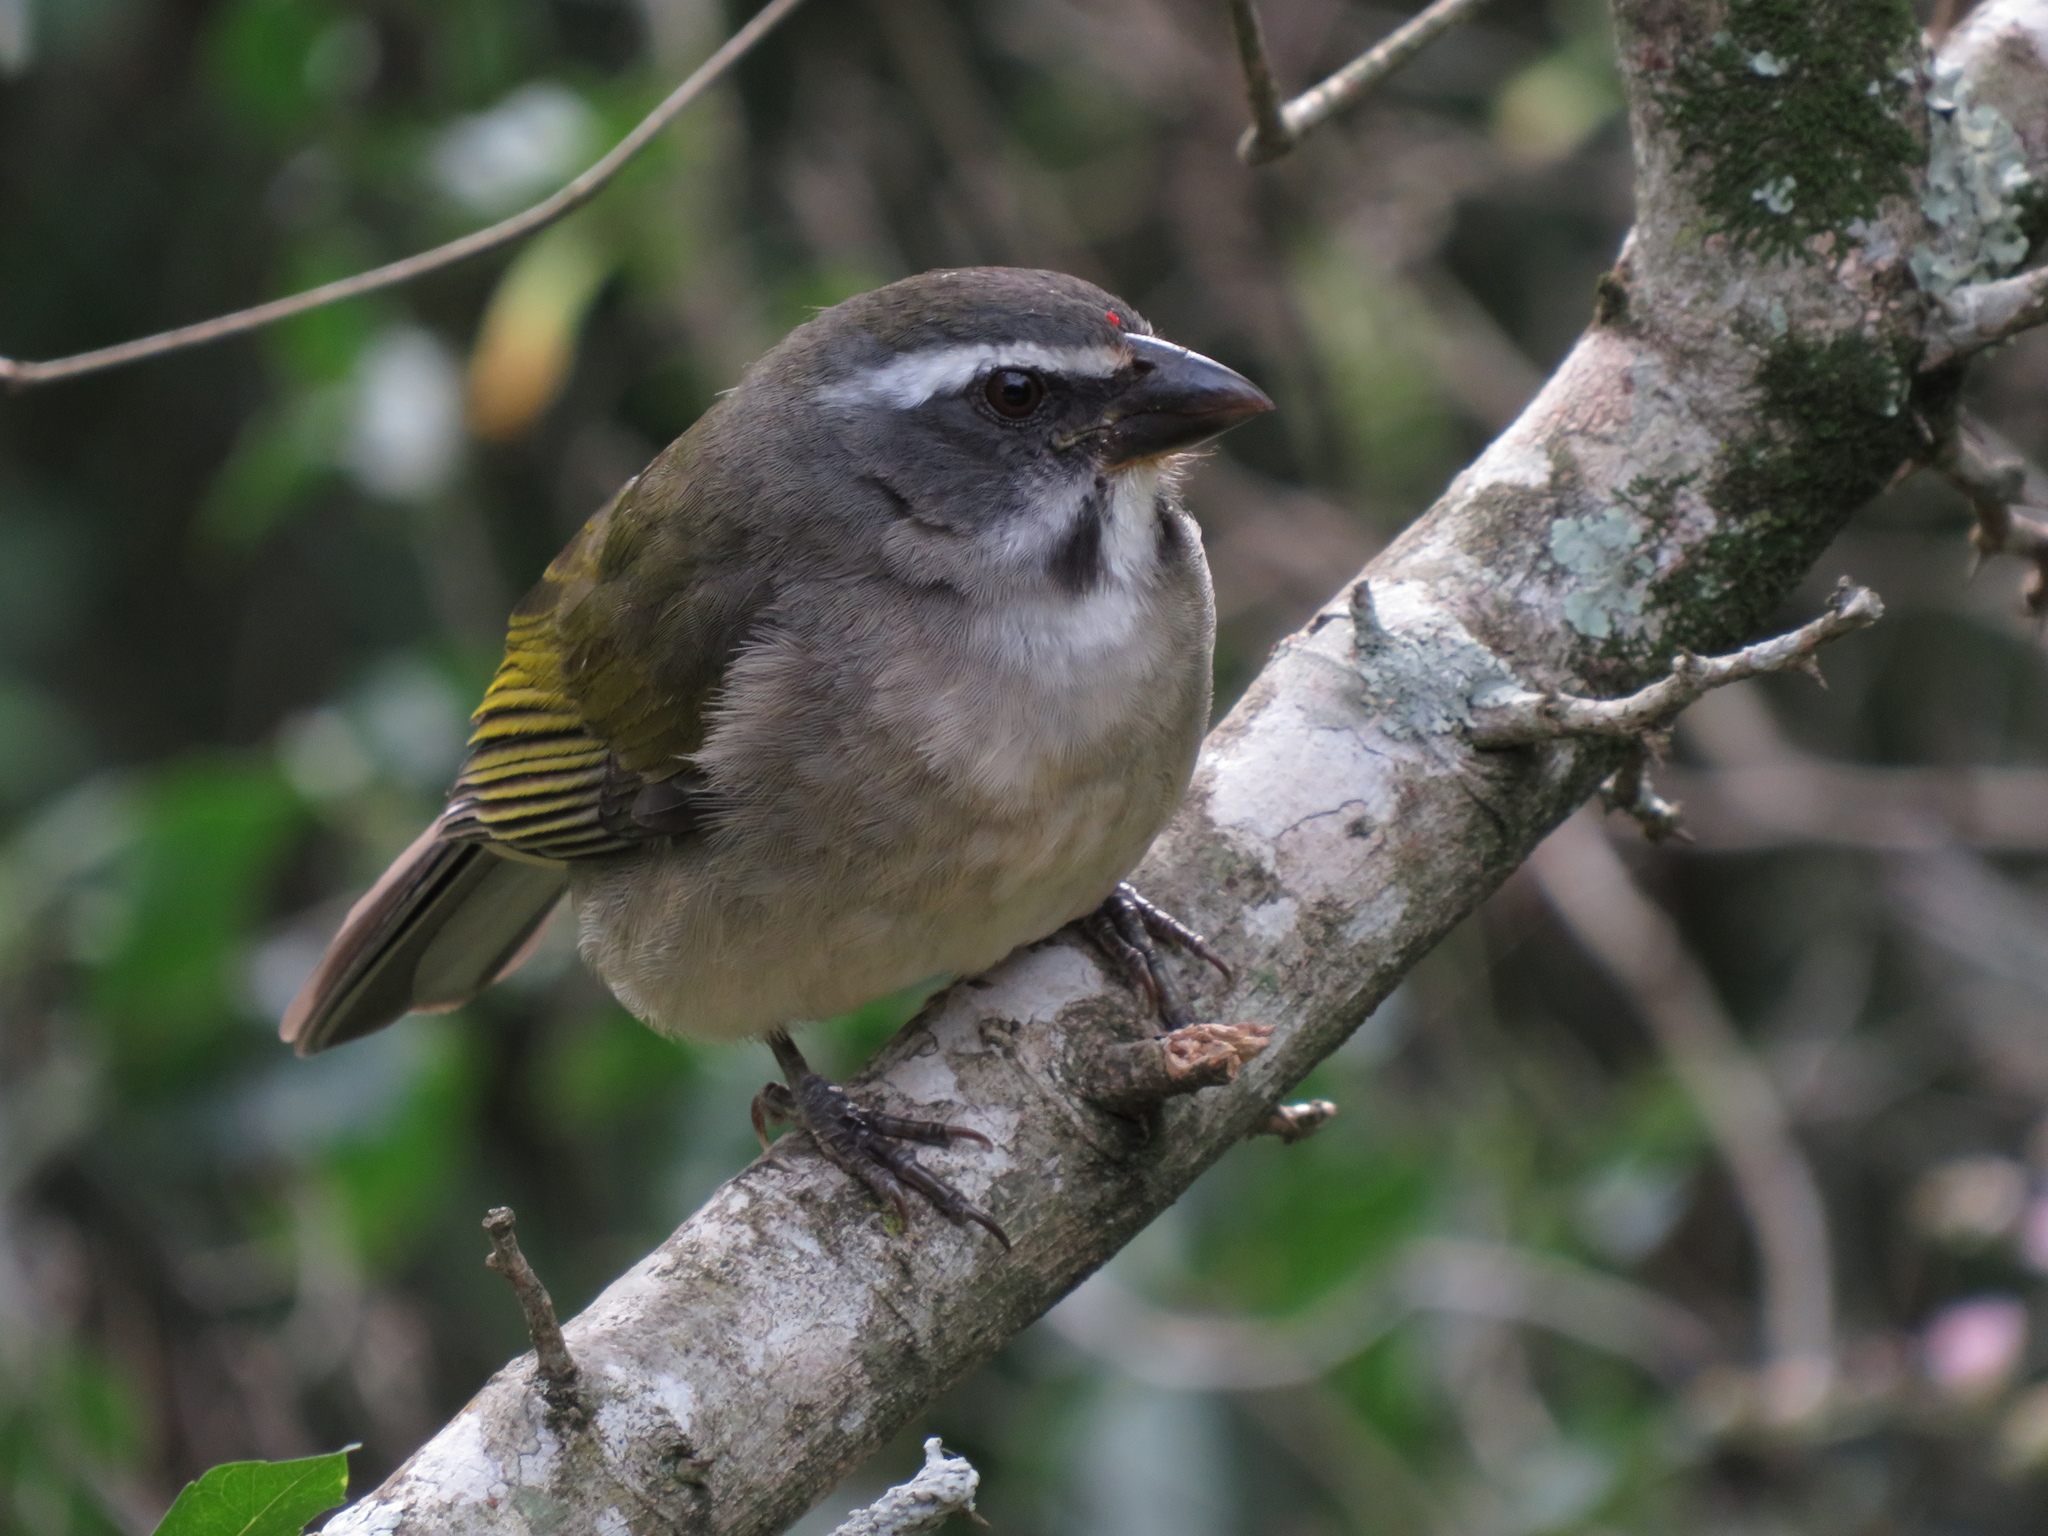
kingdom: Animalia
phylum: Chordata
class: Aves
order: Passeriformes
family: Thraupidae
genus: Saltator
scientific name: Saltator similis
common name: Green-winged saltator
